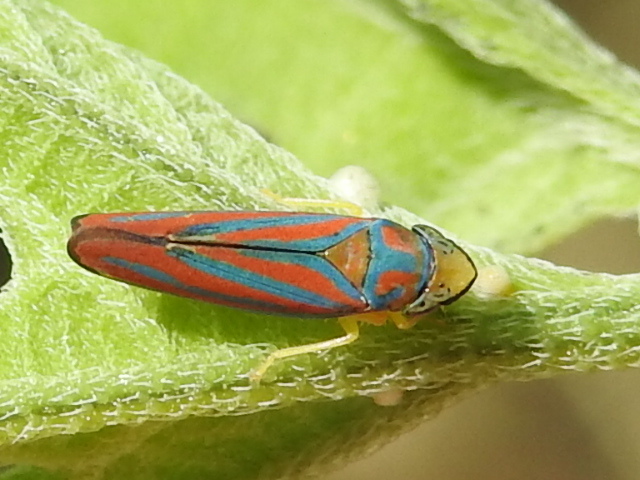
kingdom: Animalia
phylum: Arthropoda
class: Insecta
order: Hemiptera
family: Cicadellidae
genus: Graphocephala
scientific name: Graphocephala coccinea
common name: Candy-striped leafhopper
